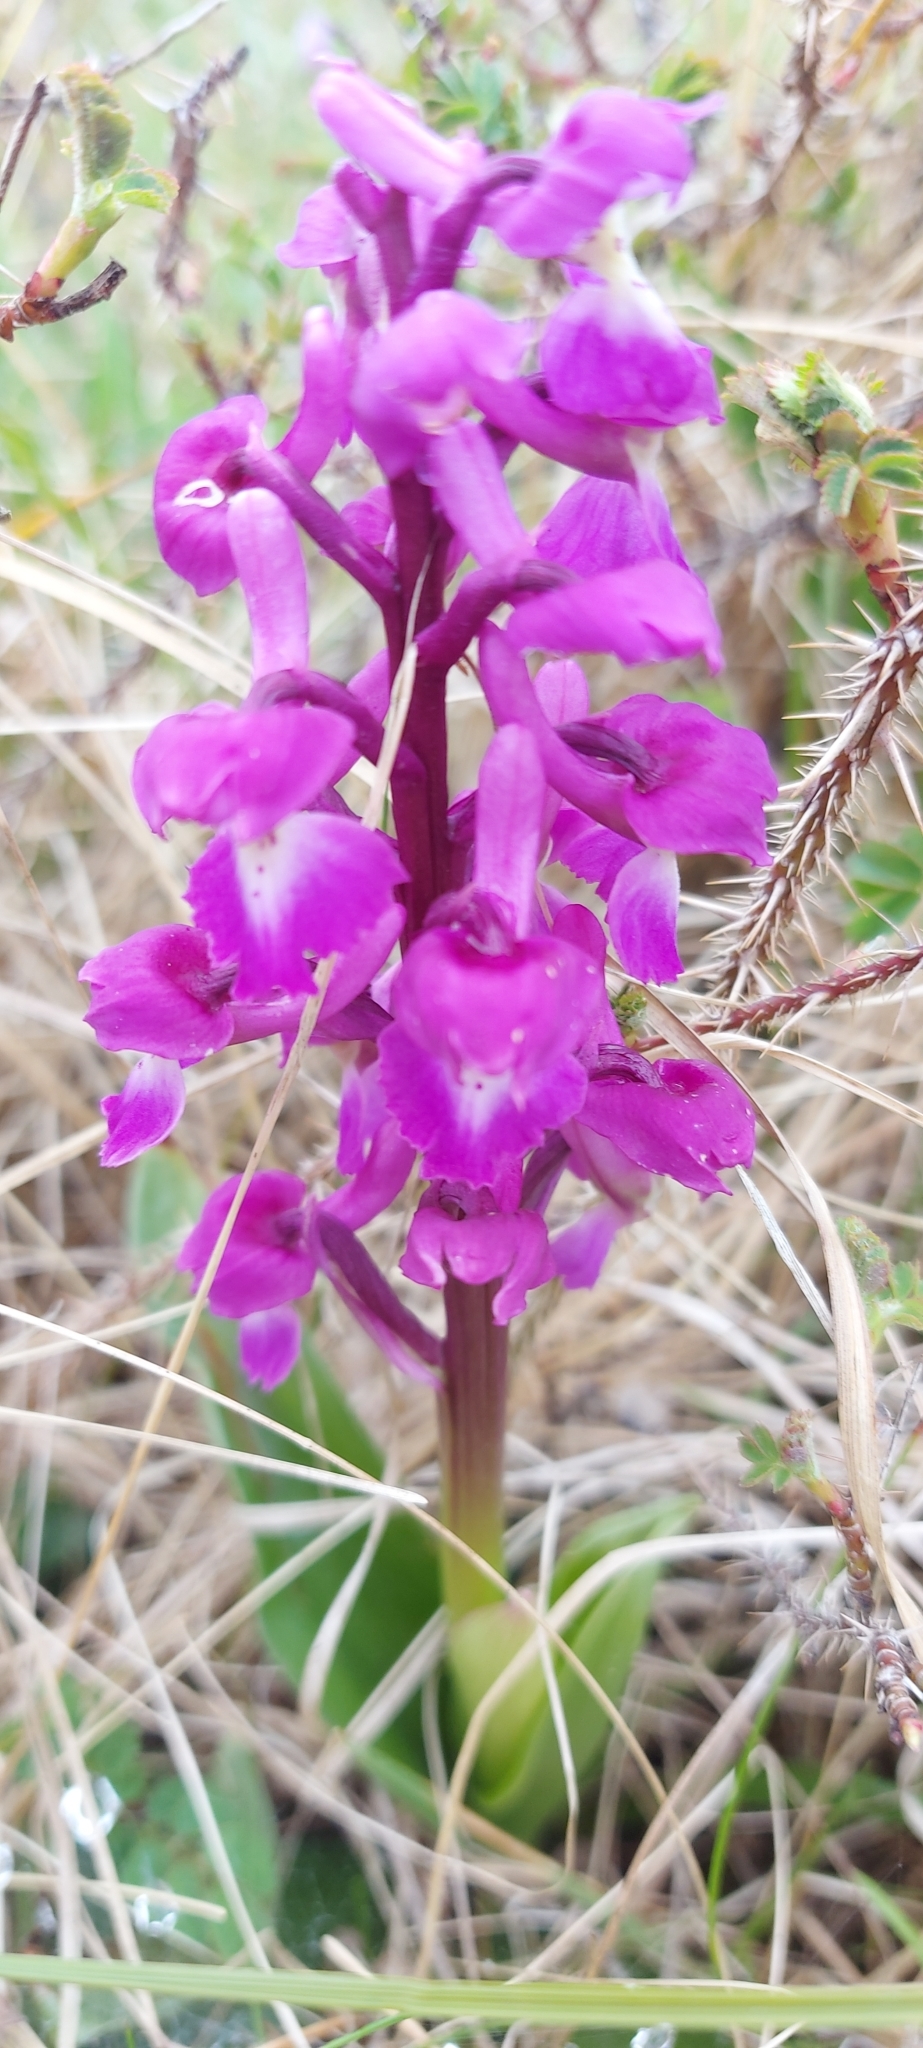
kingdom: Plantae
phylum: Tracheophyta
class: Liliopsida
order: Asparagales
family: Orchidaceae
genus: Orchis
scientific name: Orchis mascula
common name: Early-purple orchid
